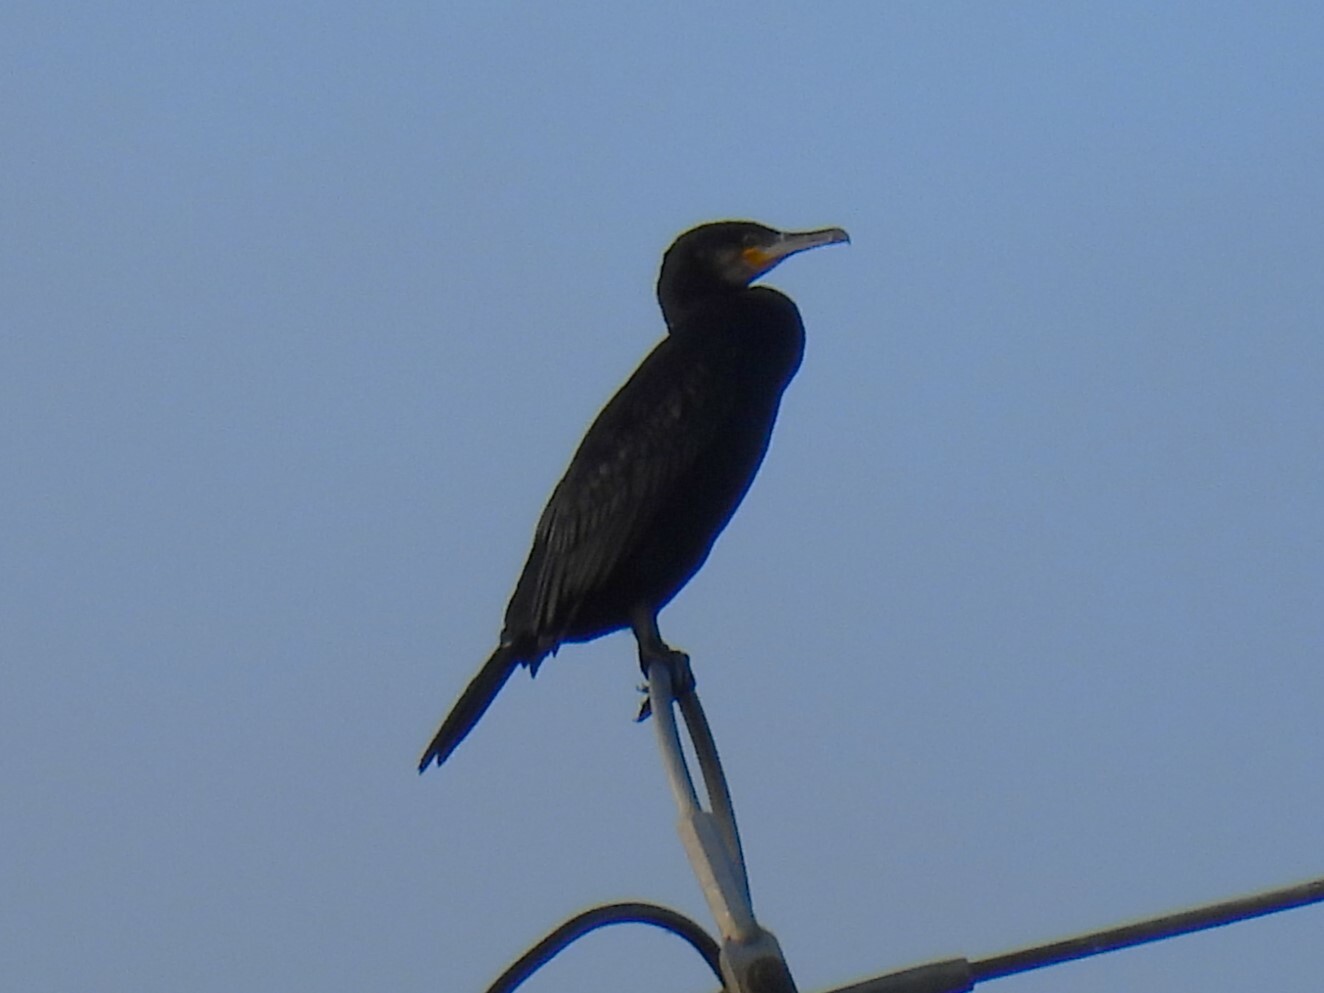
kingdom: Animalia
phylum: Chordata
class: Aves
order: Suliformes
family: Phalacrocoracidae
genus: Phalacrocorax
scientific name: Phalacrocorax carbo
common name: Great cormorant
